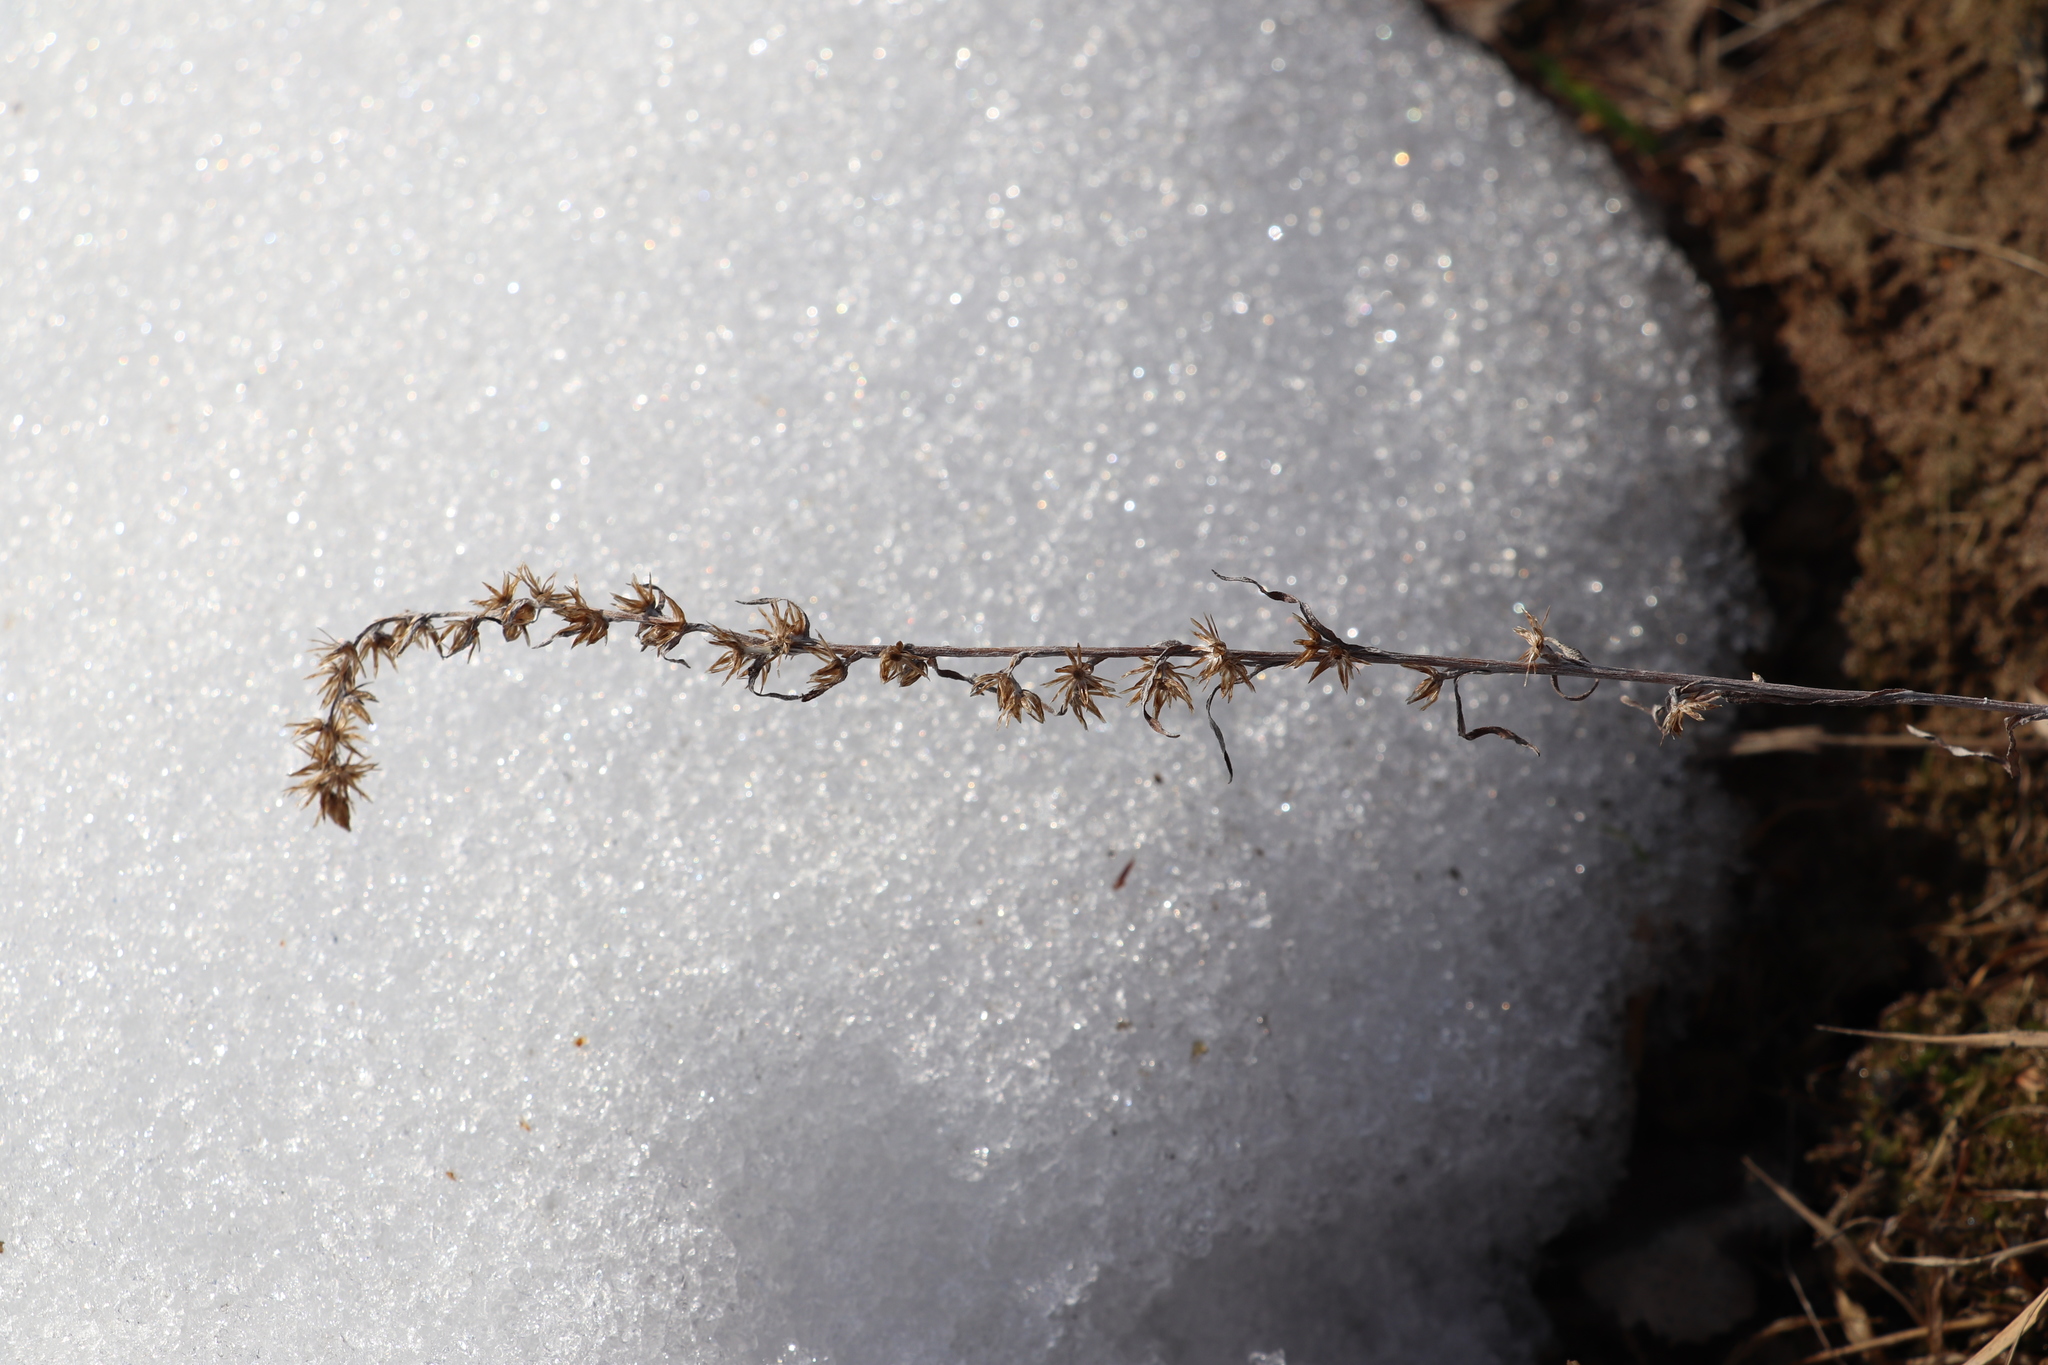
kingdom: Plantae
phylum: Tracheophyta
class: Magnoliopsida
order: Asterales
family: Asteraceae
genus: Gnaphalium
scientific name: Gnaphalium uliginosum
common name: Marsh cudweed
